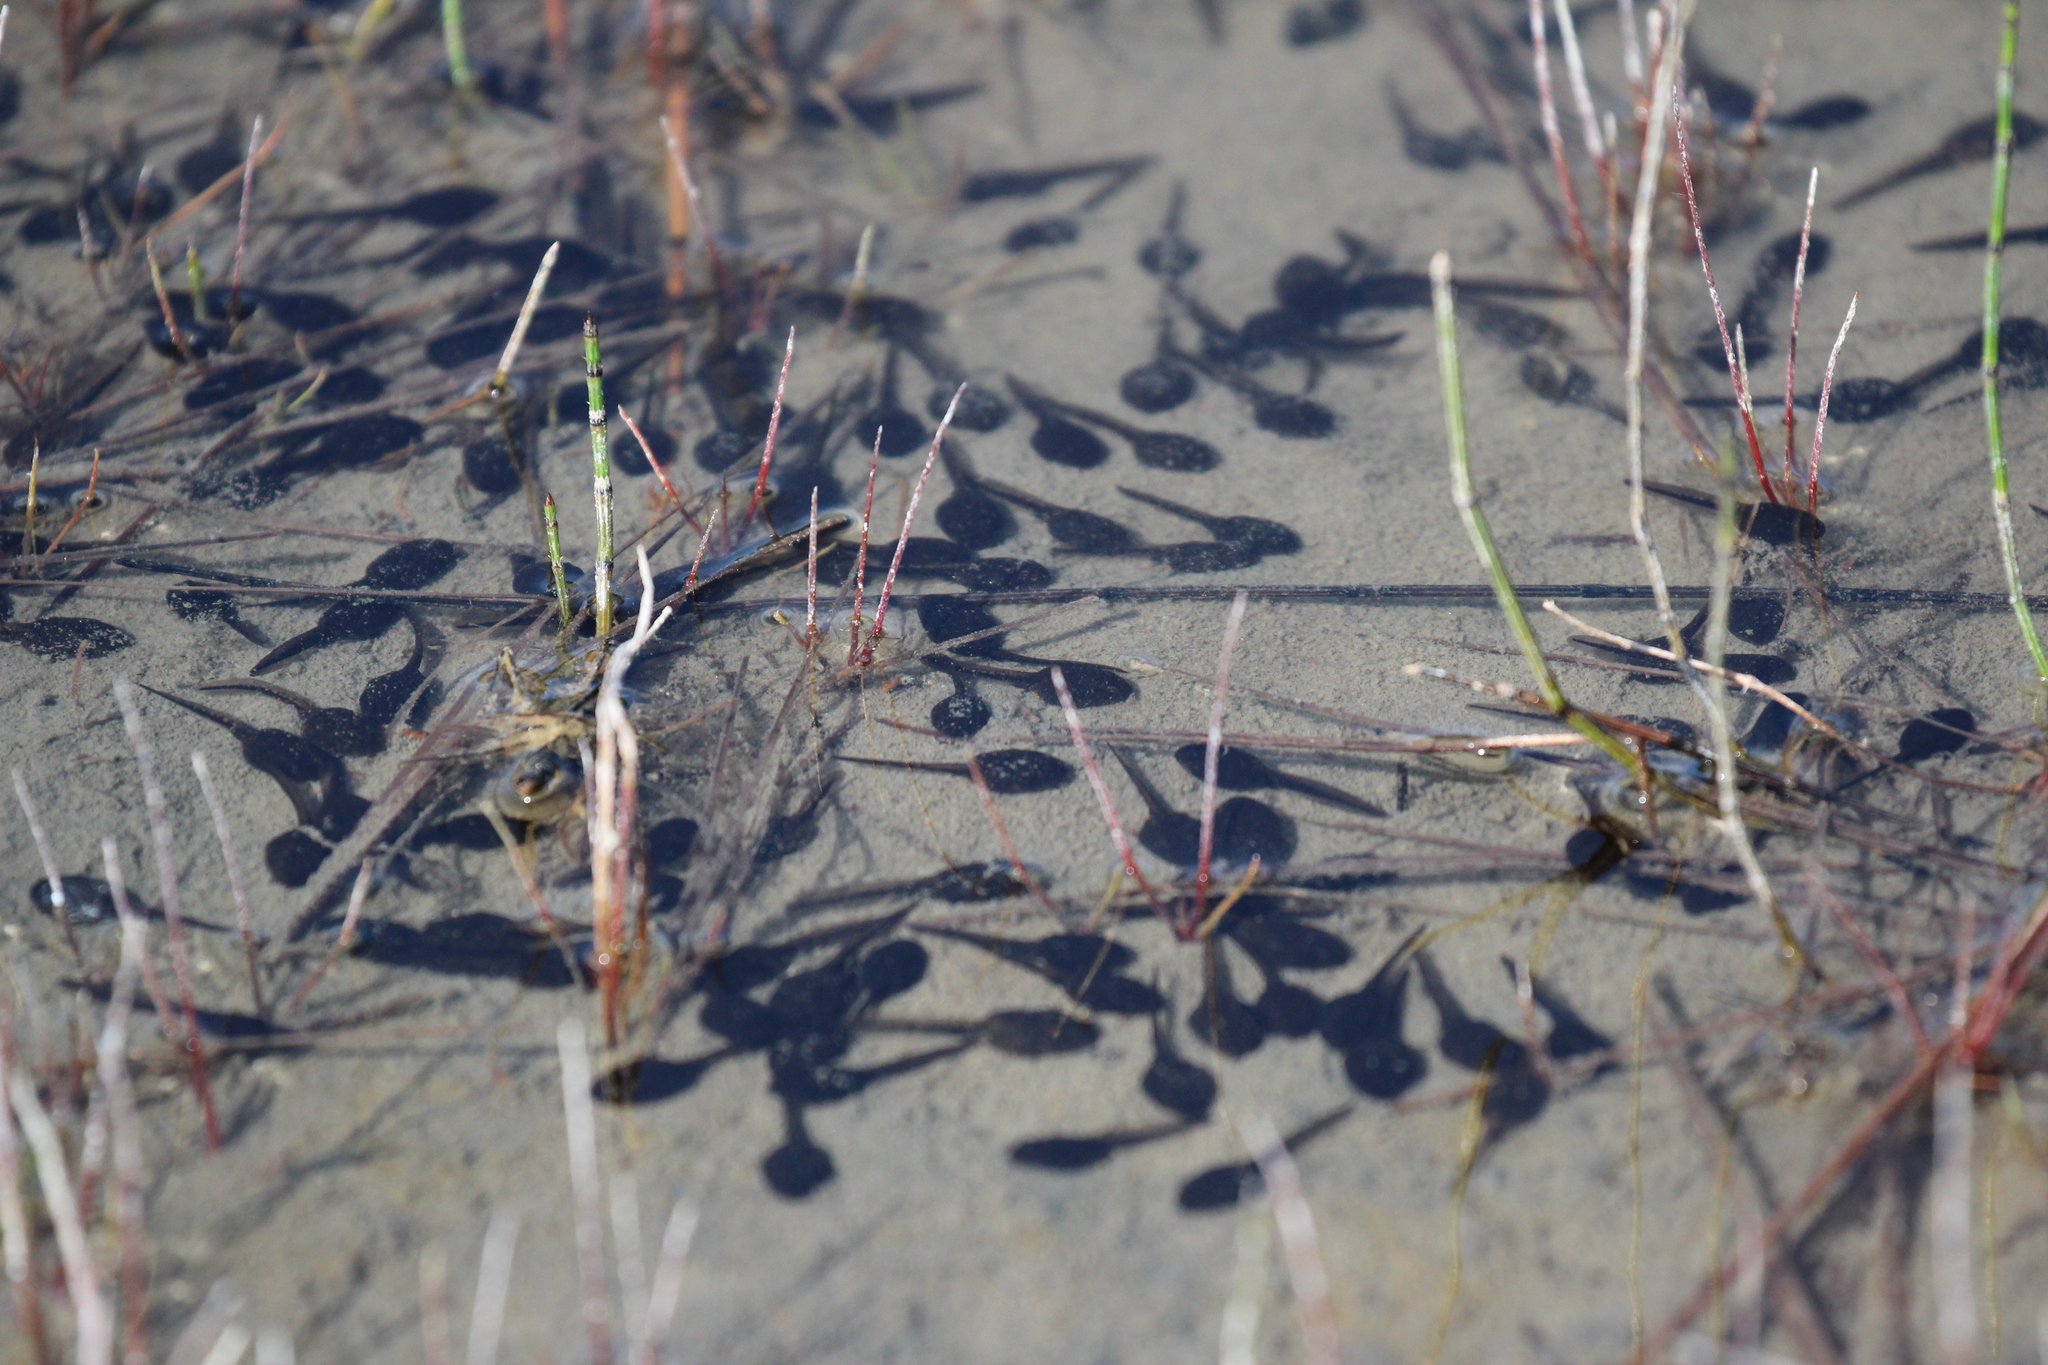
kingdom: Animalia
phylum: Chordata
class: Amphibia
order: Anura
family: Bufonidae
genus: Anaxyrus
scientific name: Anaxyrus americanus
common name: American toad
